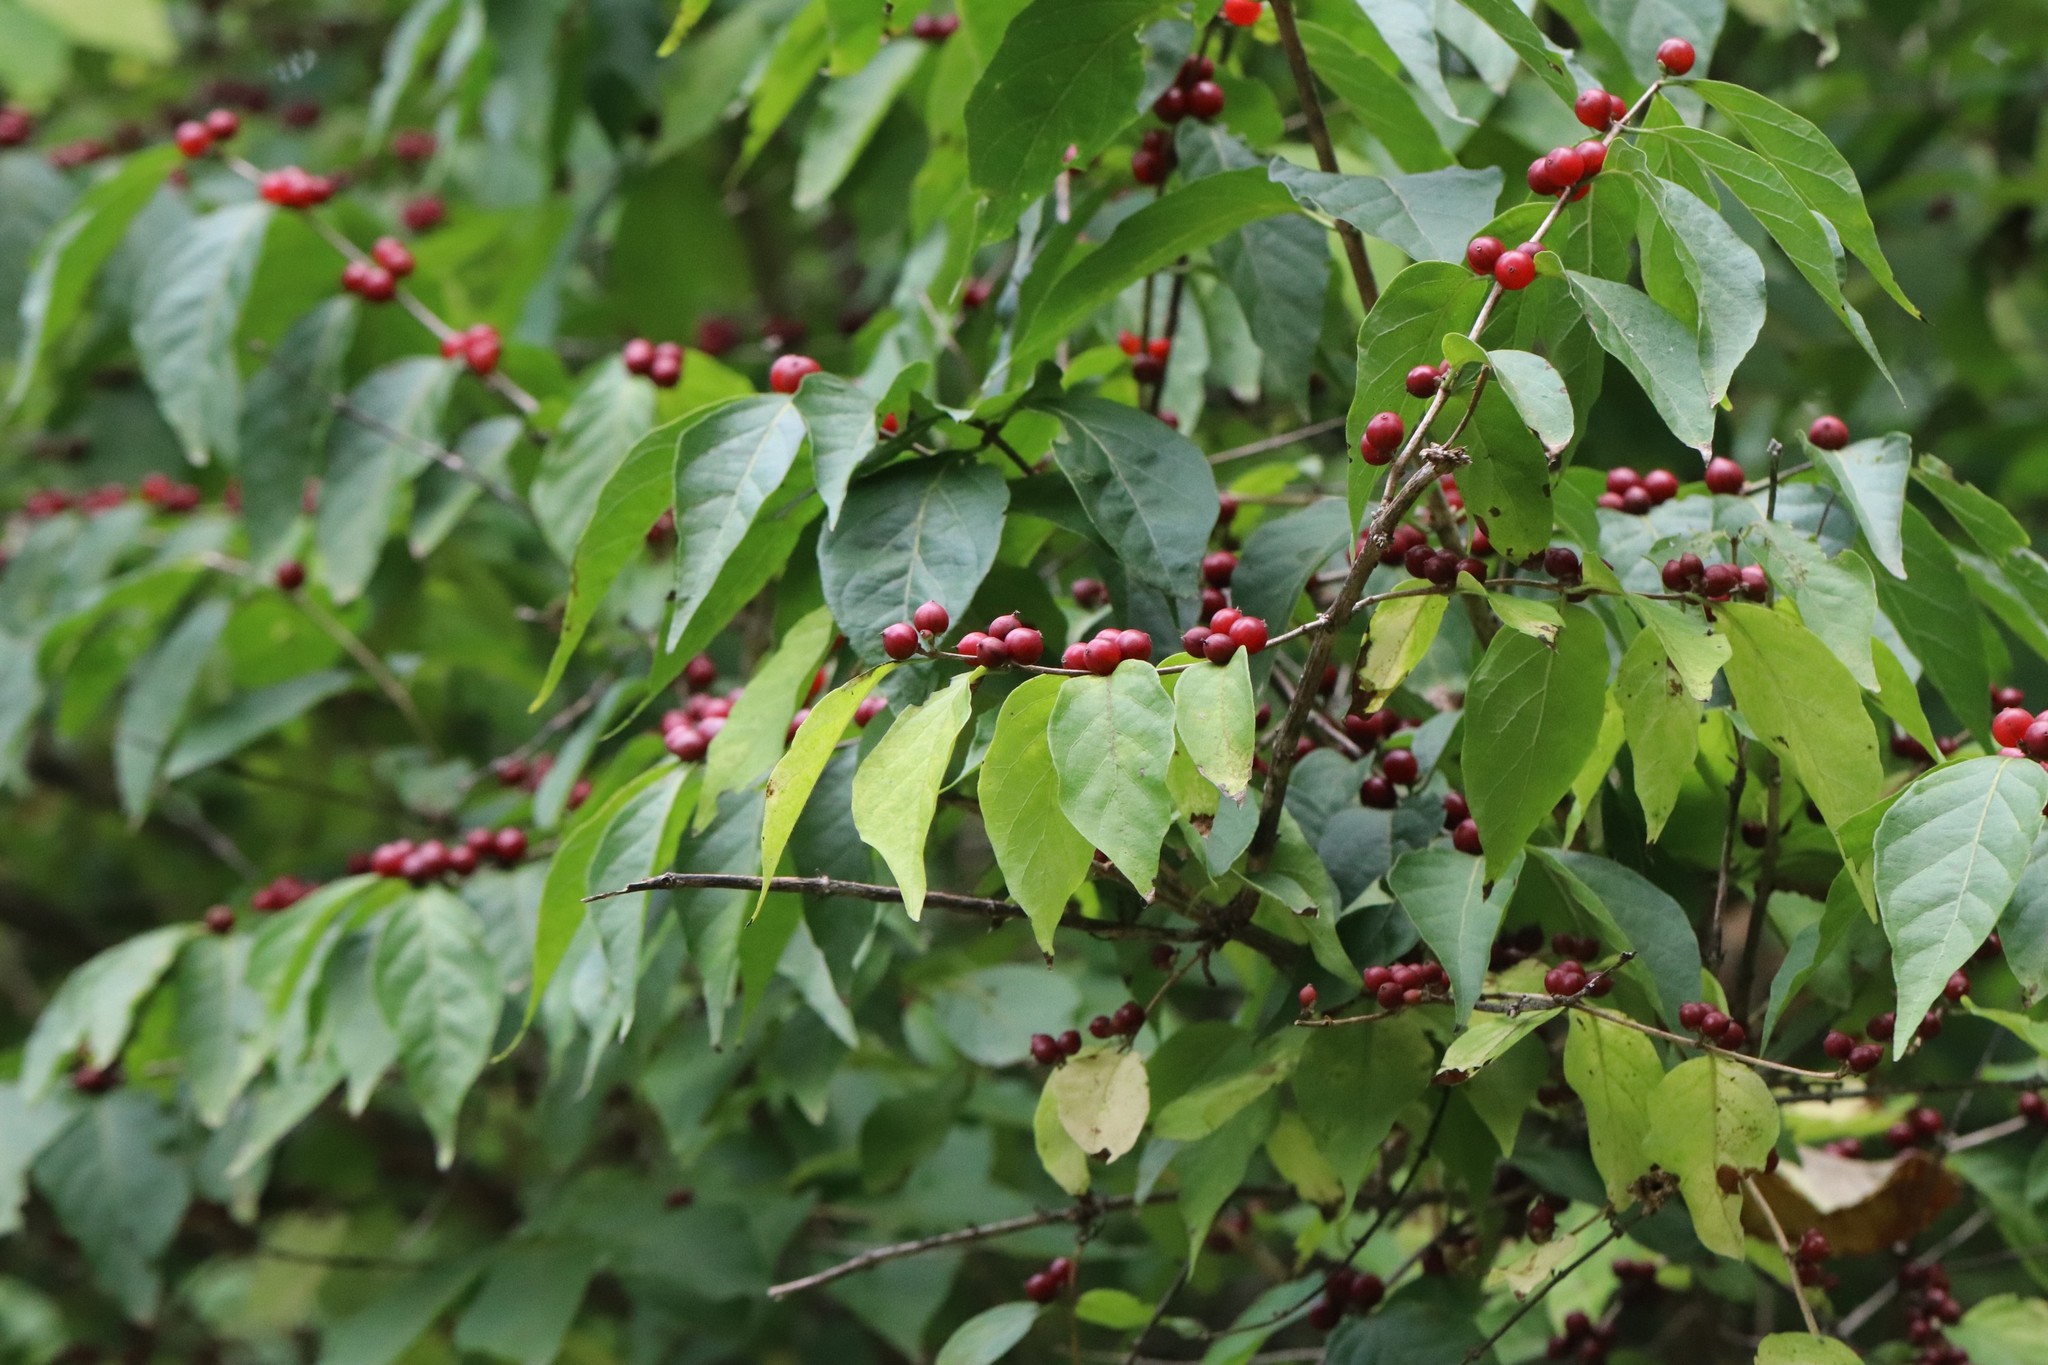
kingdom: Plantae
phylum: Tracheophyta
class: Magnoliopsida
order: Dipsacales
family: Caprifoliaceae
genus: Lonicera
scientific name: Lonicera maackii
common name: Amur honeysuckle
